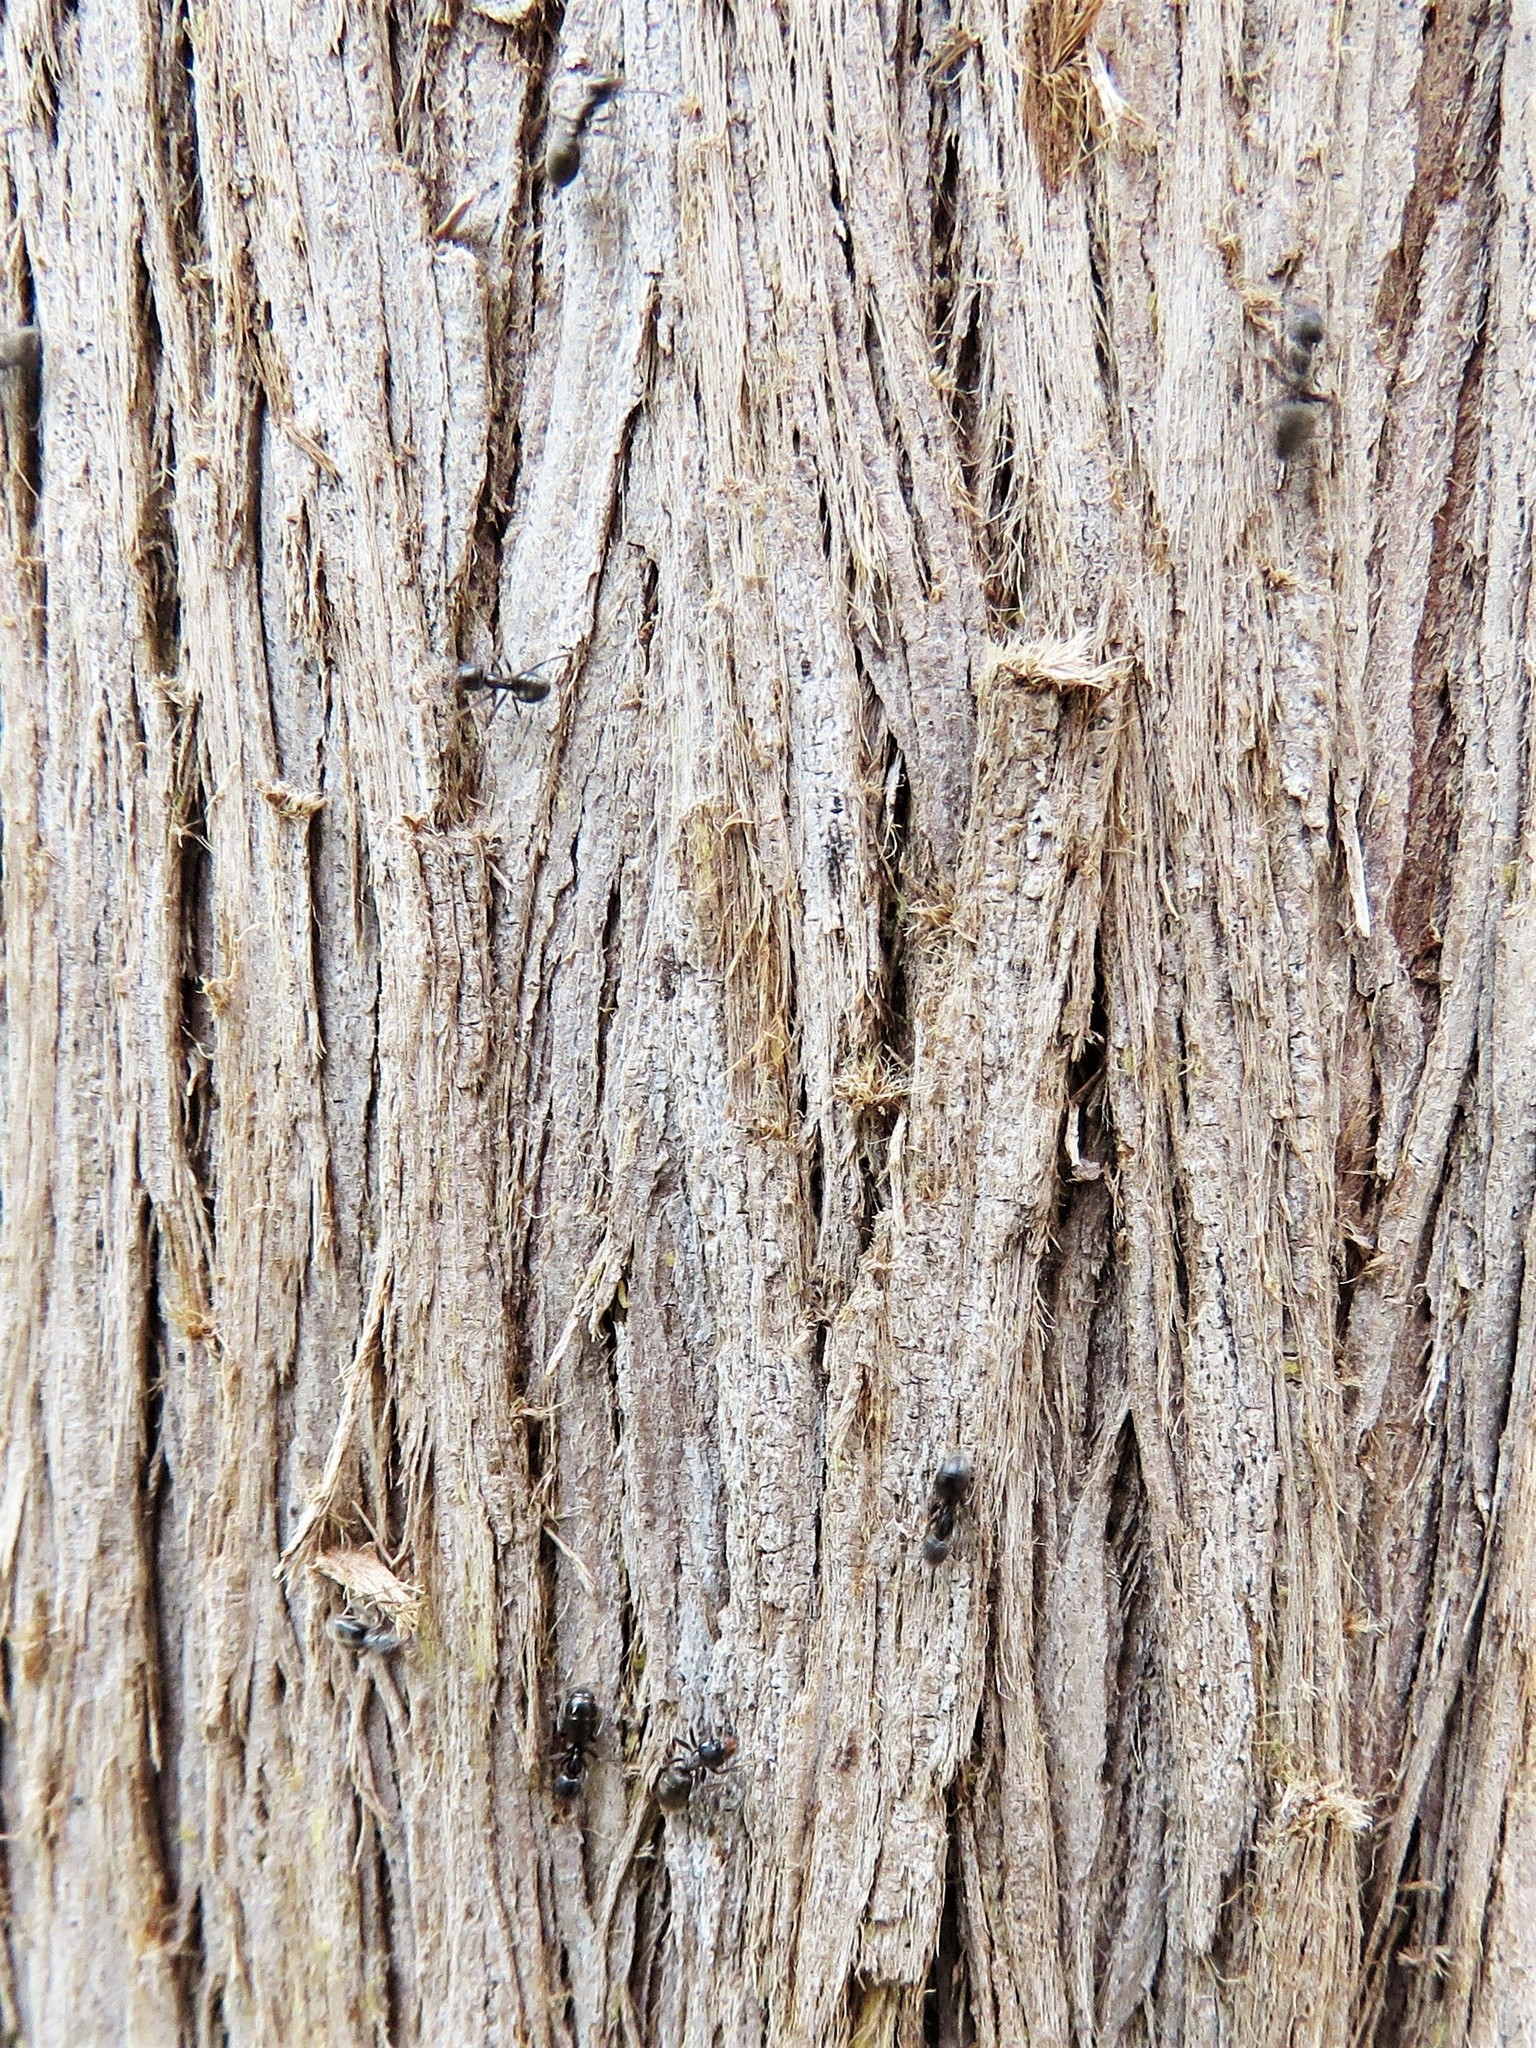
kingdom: Animalia
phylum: Arthropoda
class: Insecta
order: Hymenoptera
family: Formicidae
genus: Liometopum
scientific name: Liometopum luctuosum
